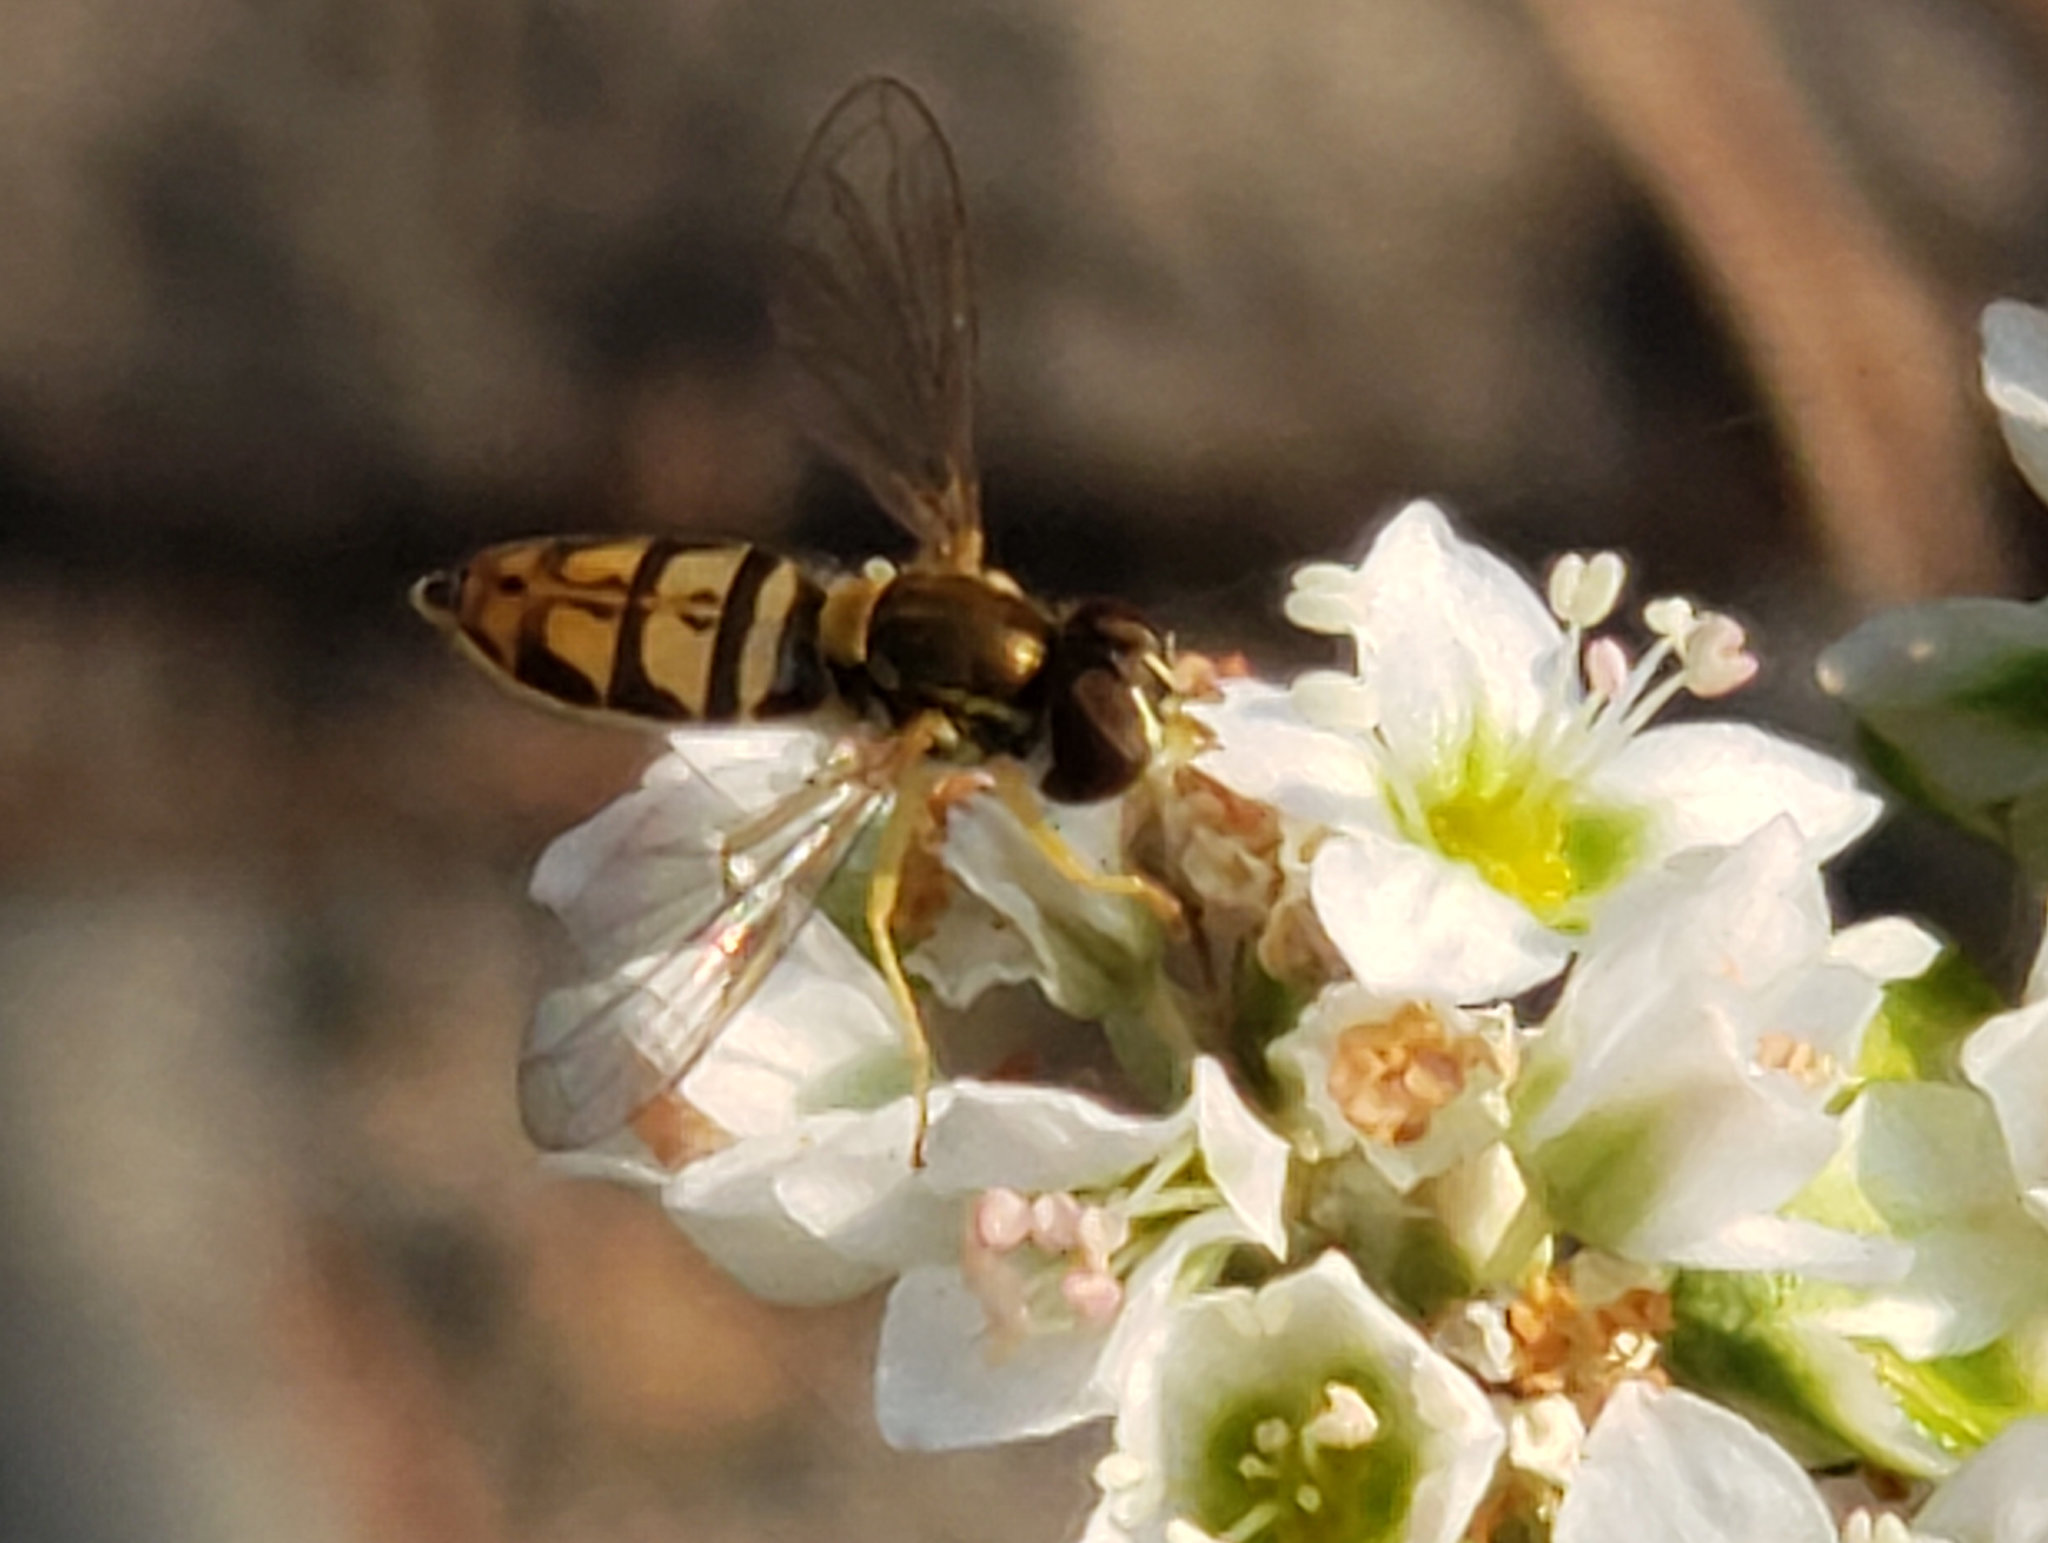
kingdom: Animalia
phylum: Arthropoda
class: Insecta
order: Diptera
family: Syrphidae
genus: Toxomerus
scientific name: Toxomerus marginatus
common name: Syrphid fly
